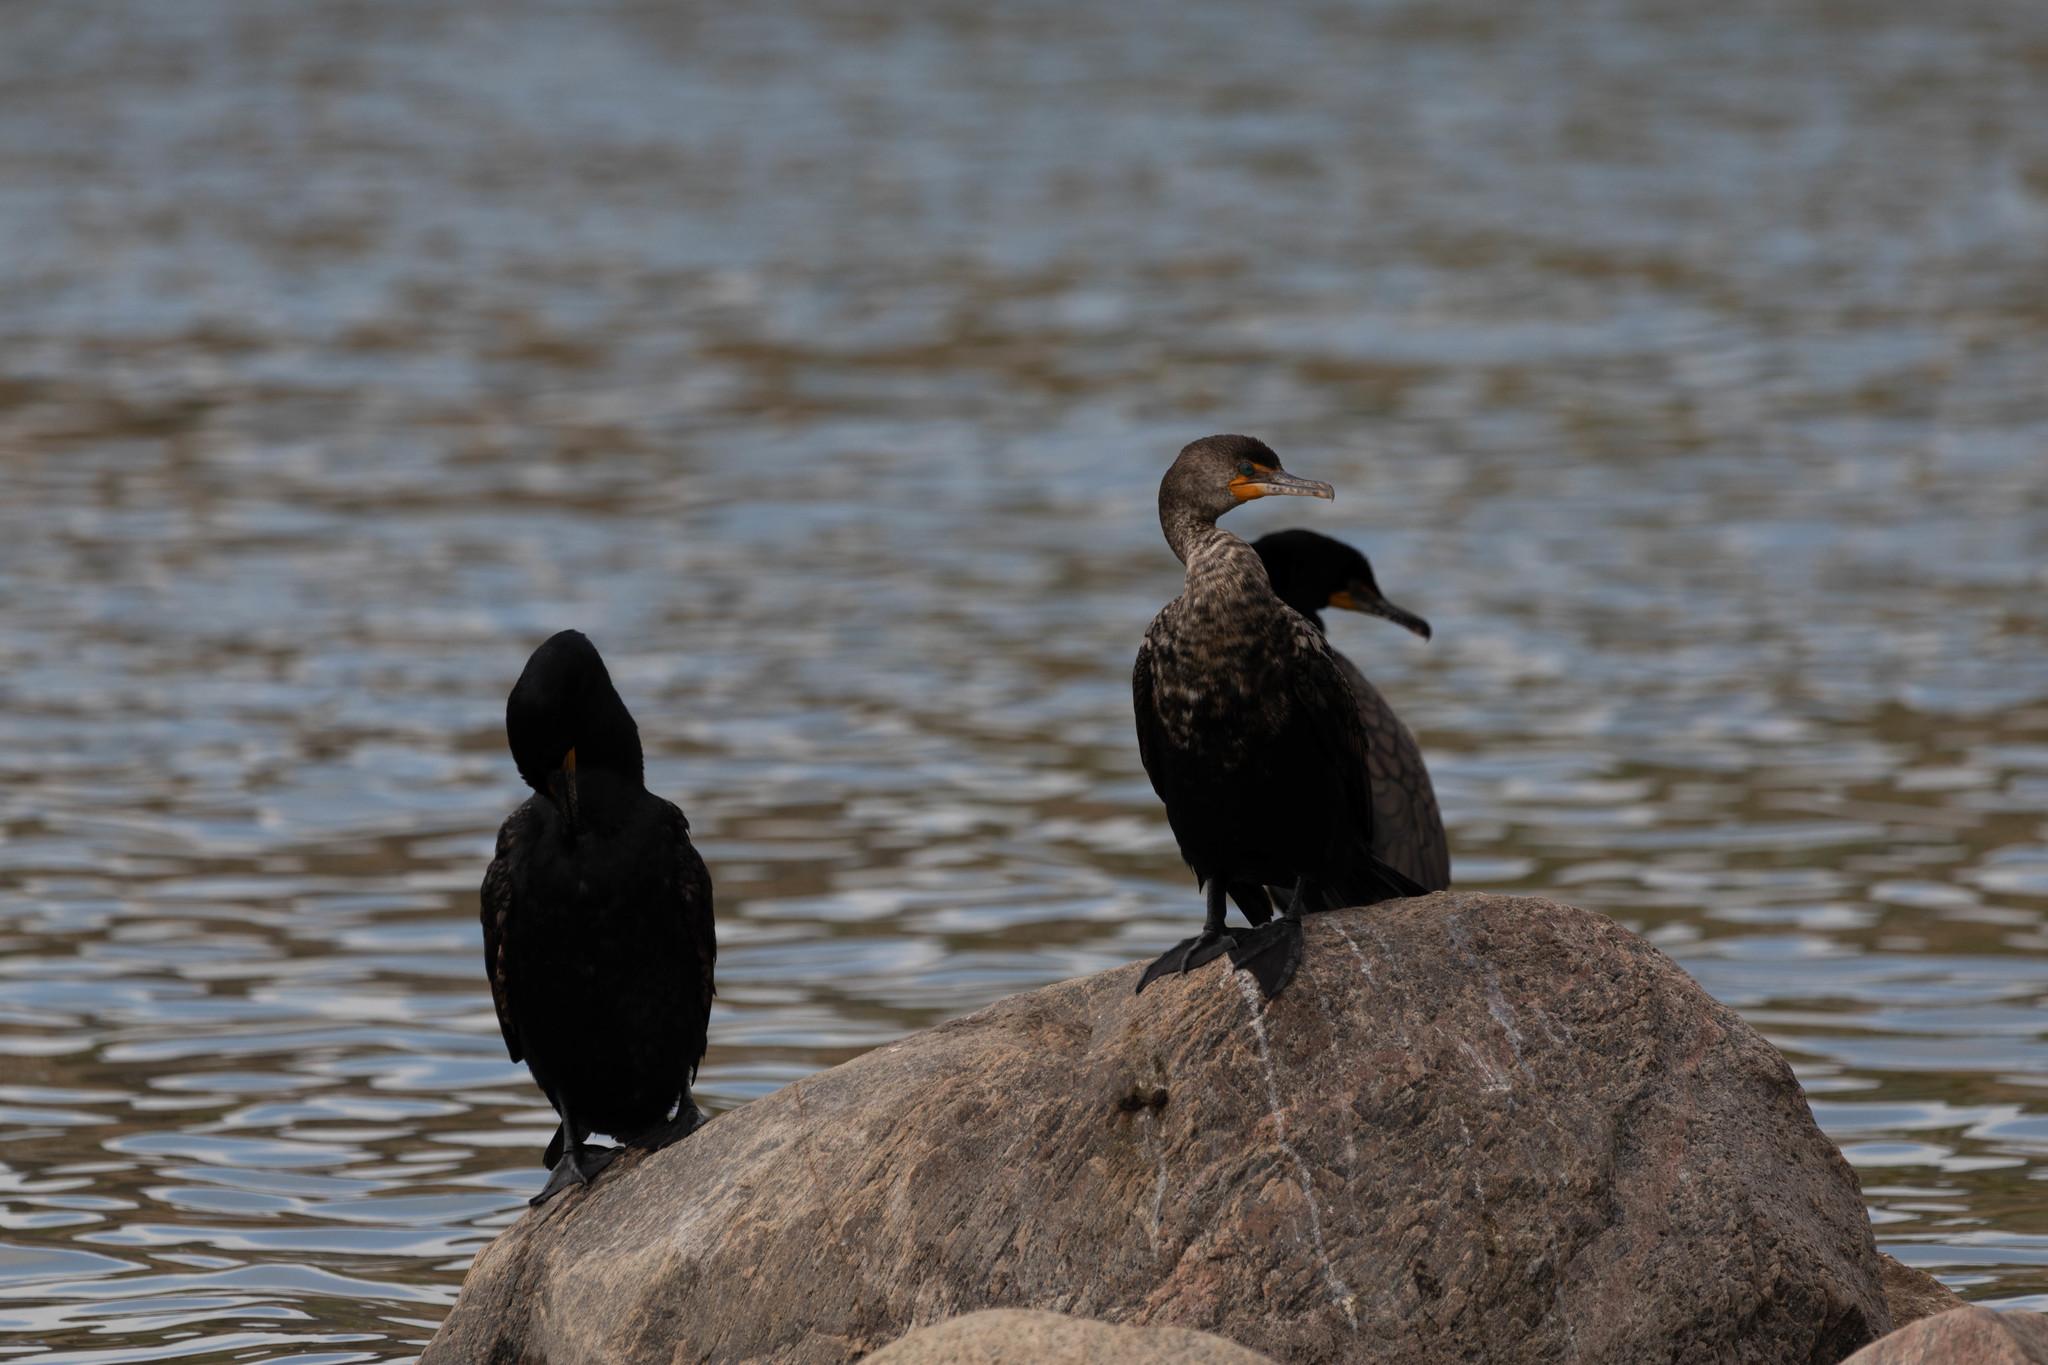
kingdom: Animalia
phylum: Chordata
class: Aves
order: Suliformes
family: Phalacrocoracidae
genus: Phalacrocorax
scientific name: Phalacrocorax auritus
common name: Double-crested cormorant
